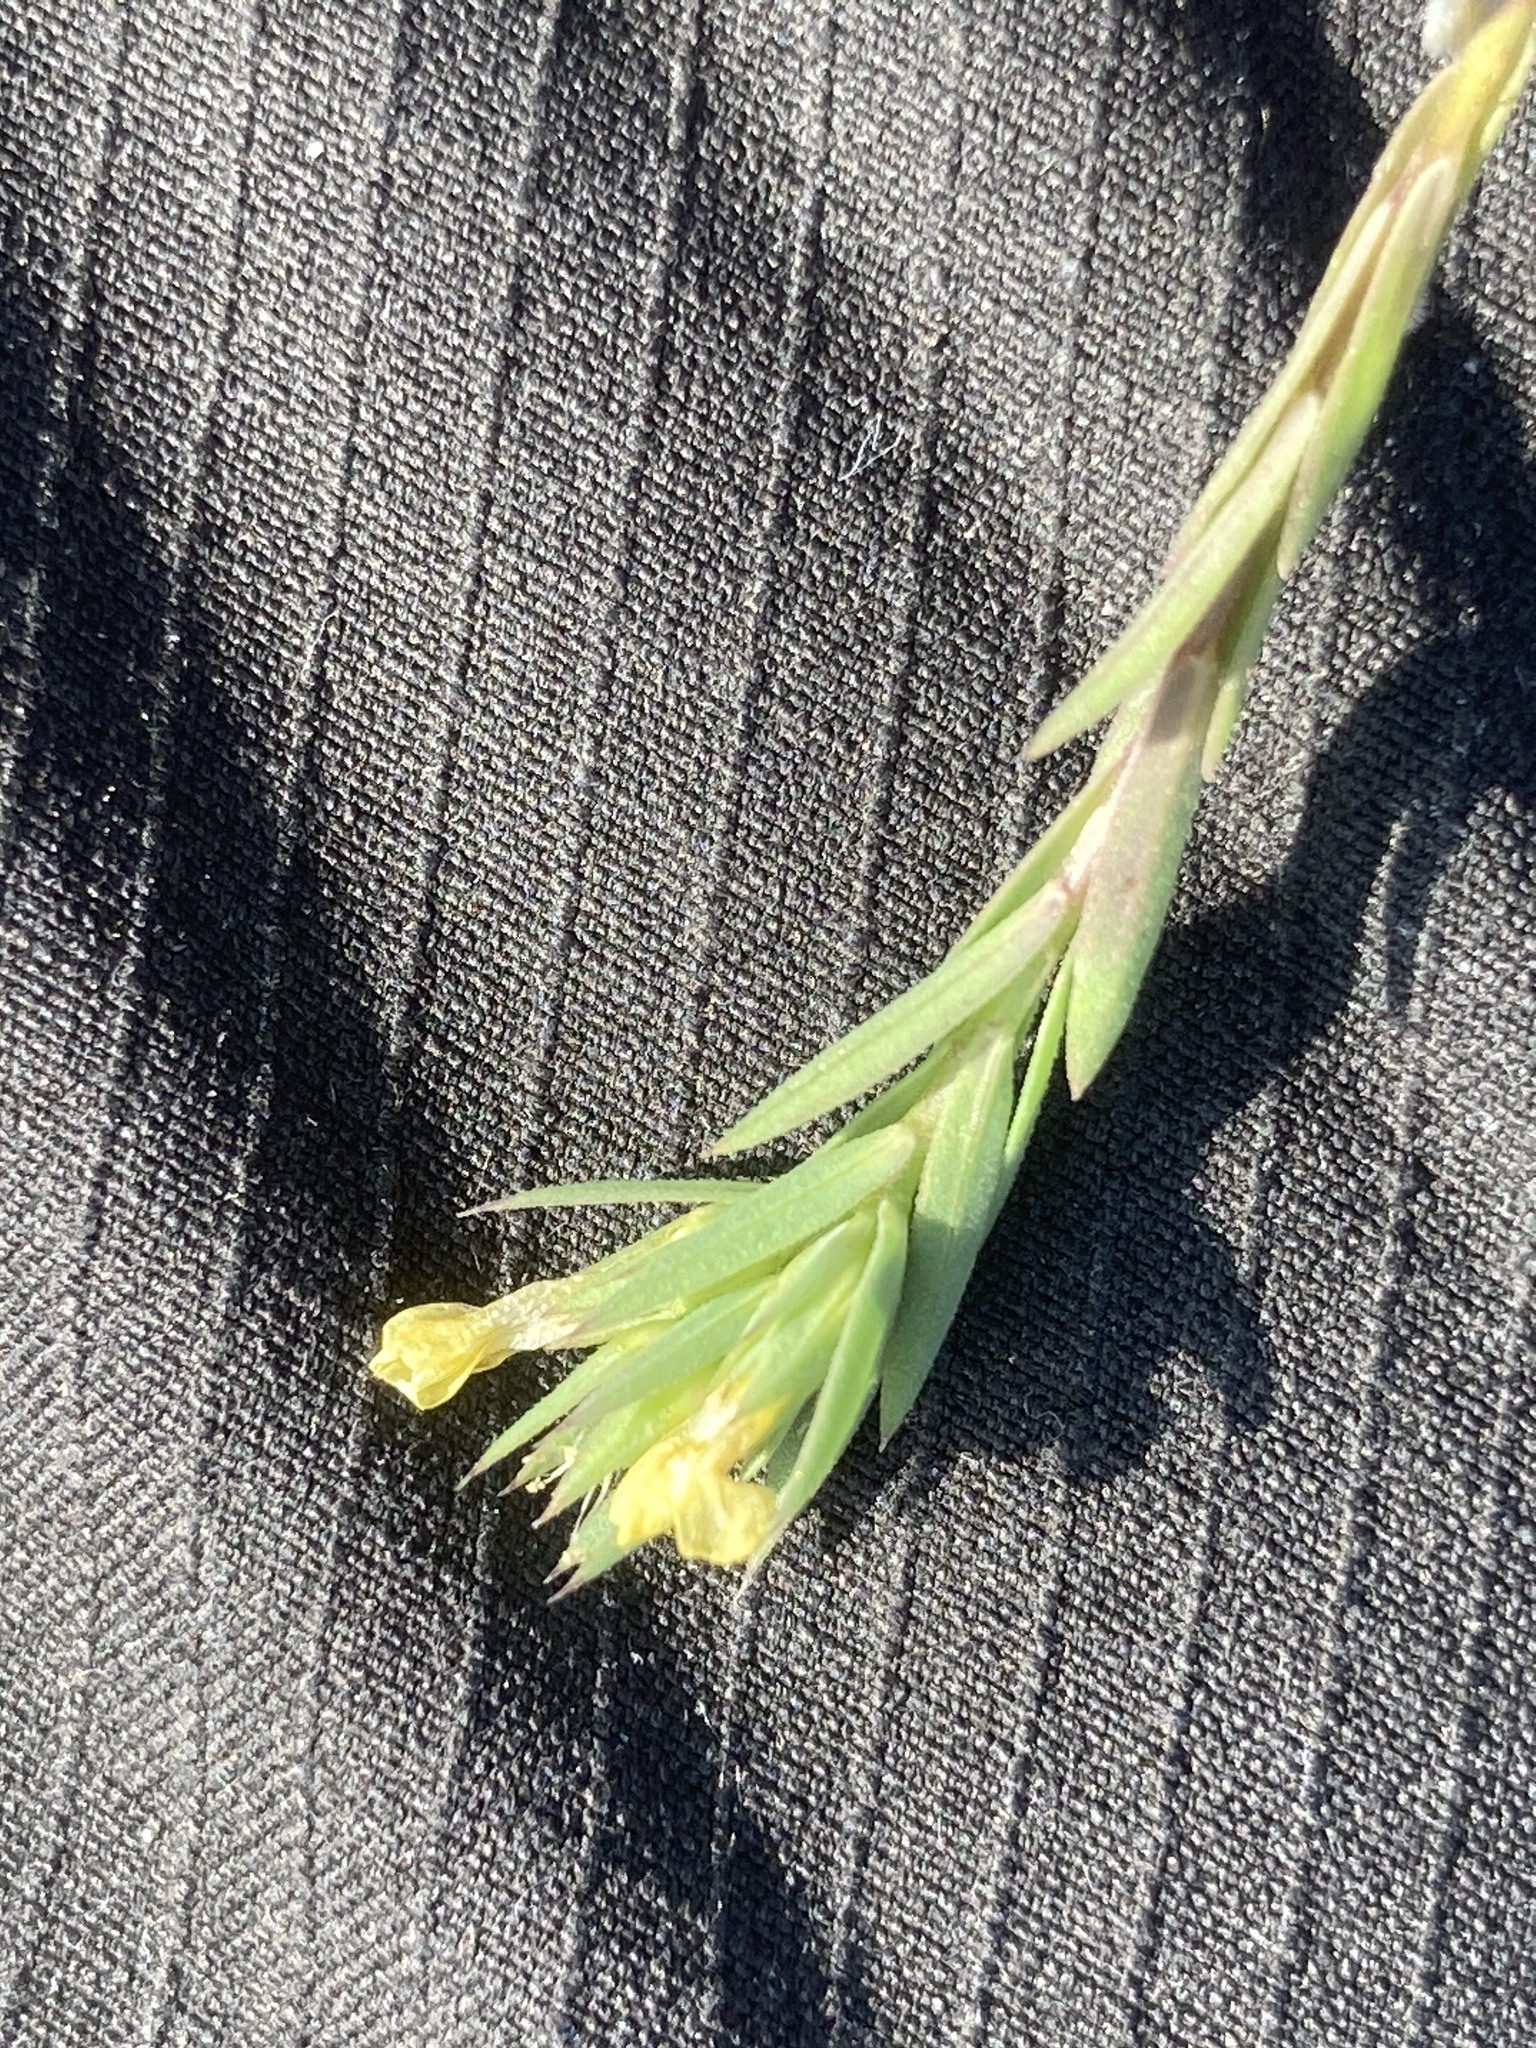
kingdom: Plantae
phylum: Tracheophyta
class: Magnoliopsida
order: Malpighiales
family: Linaceae
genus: Linum
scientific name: Linum strictum
